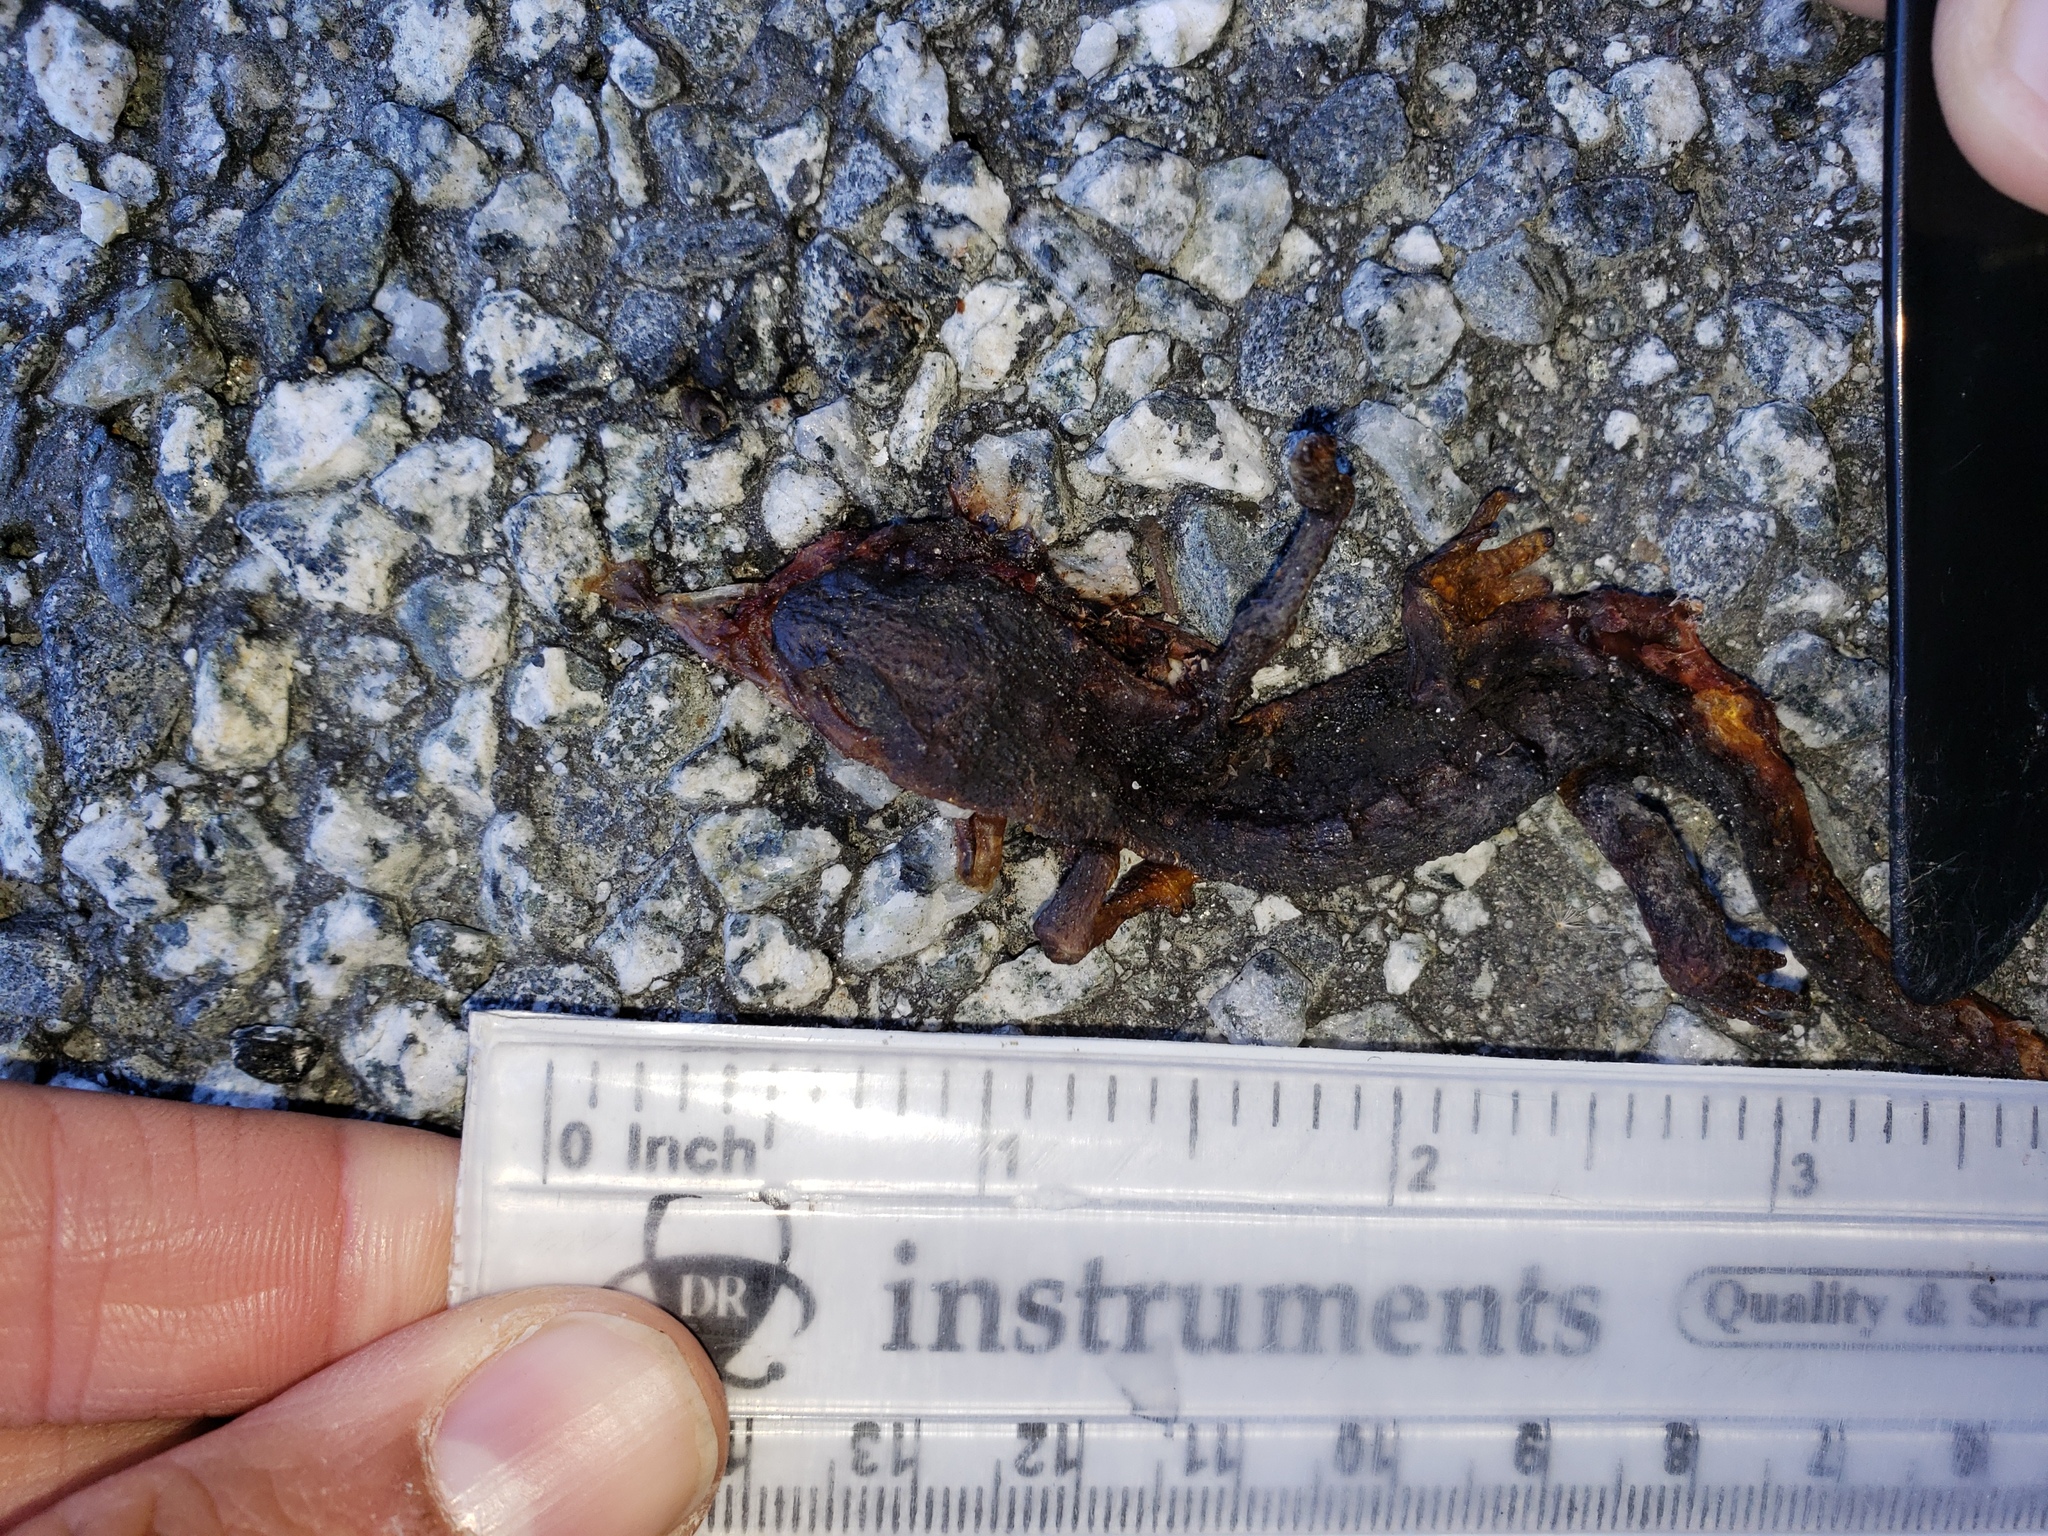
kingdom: Animalia
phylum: Chordata
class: Amphibia
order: Caudata
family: Salamandridae
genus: Taricha
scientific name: Taricha
